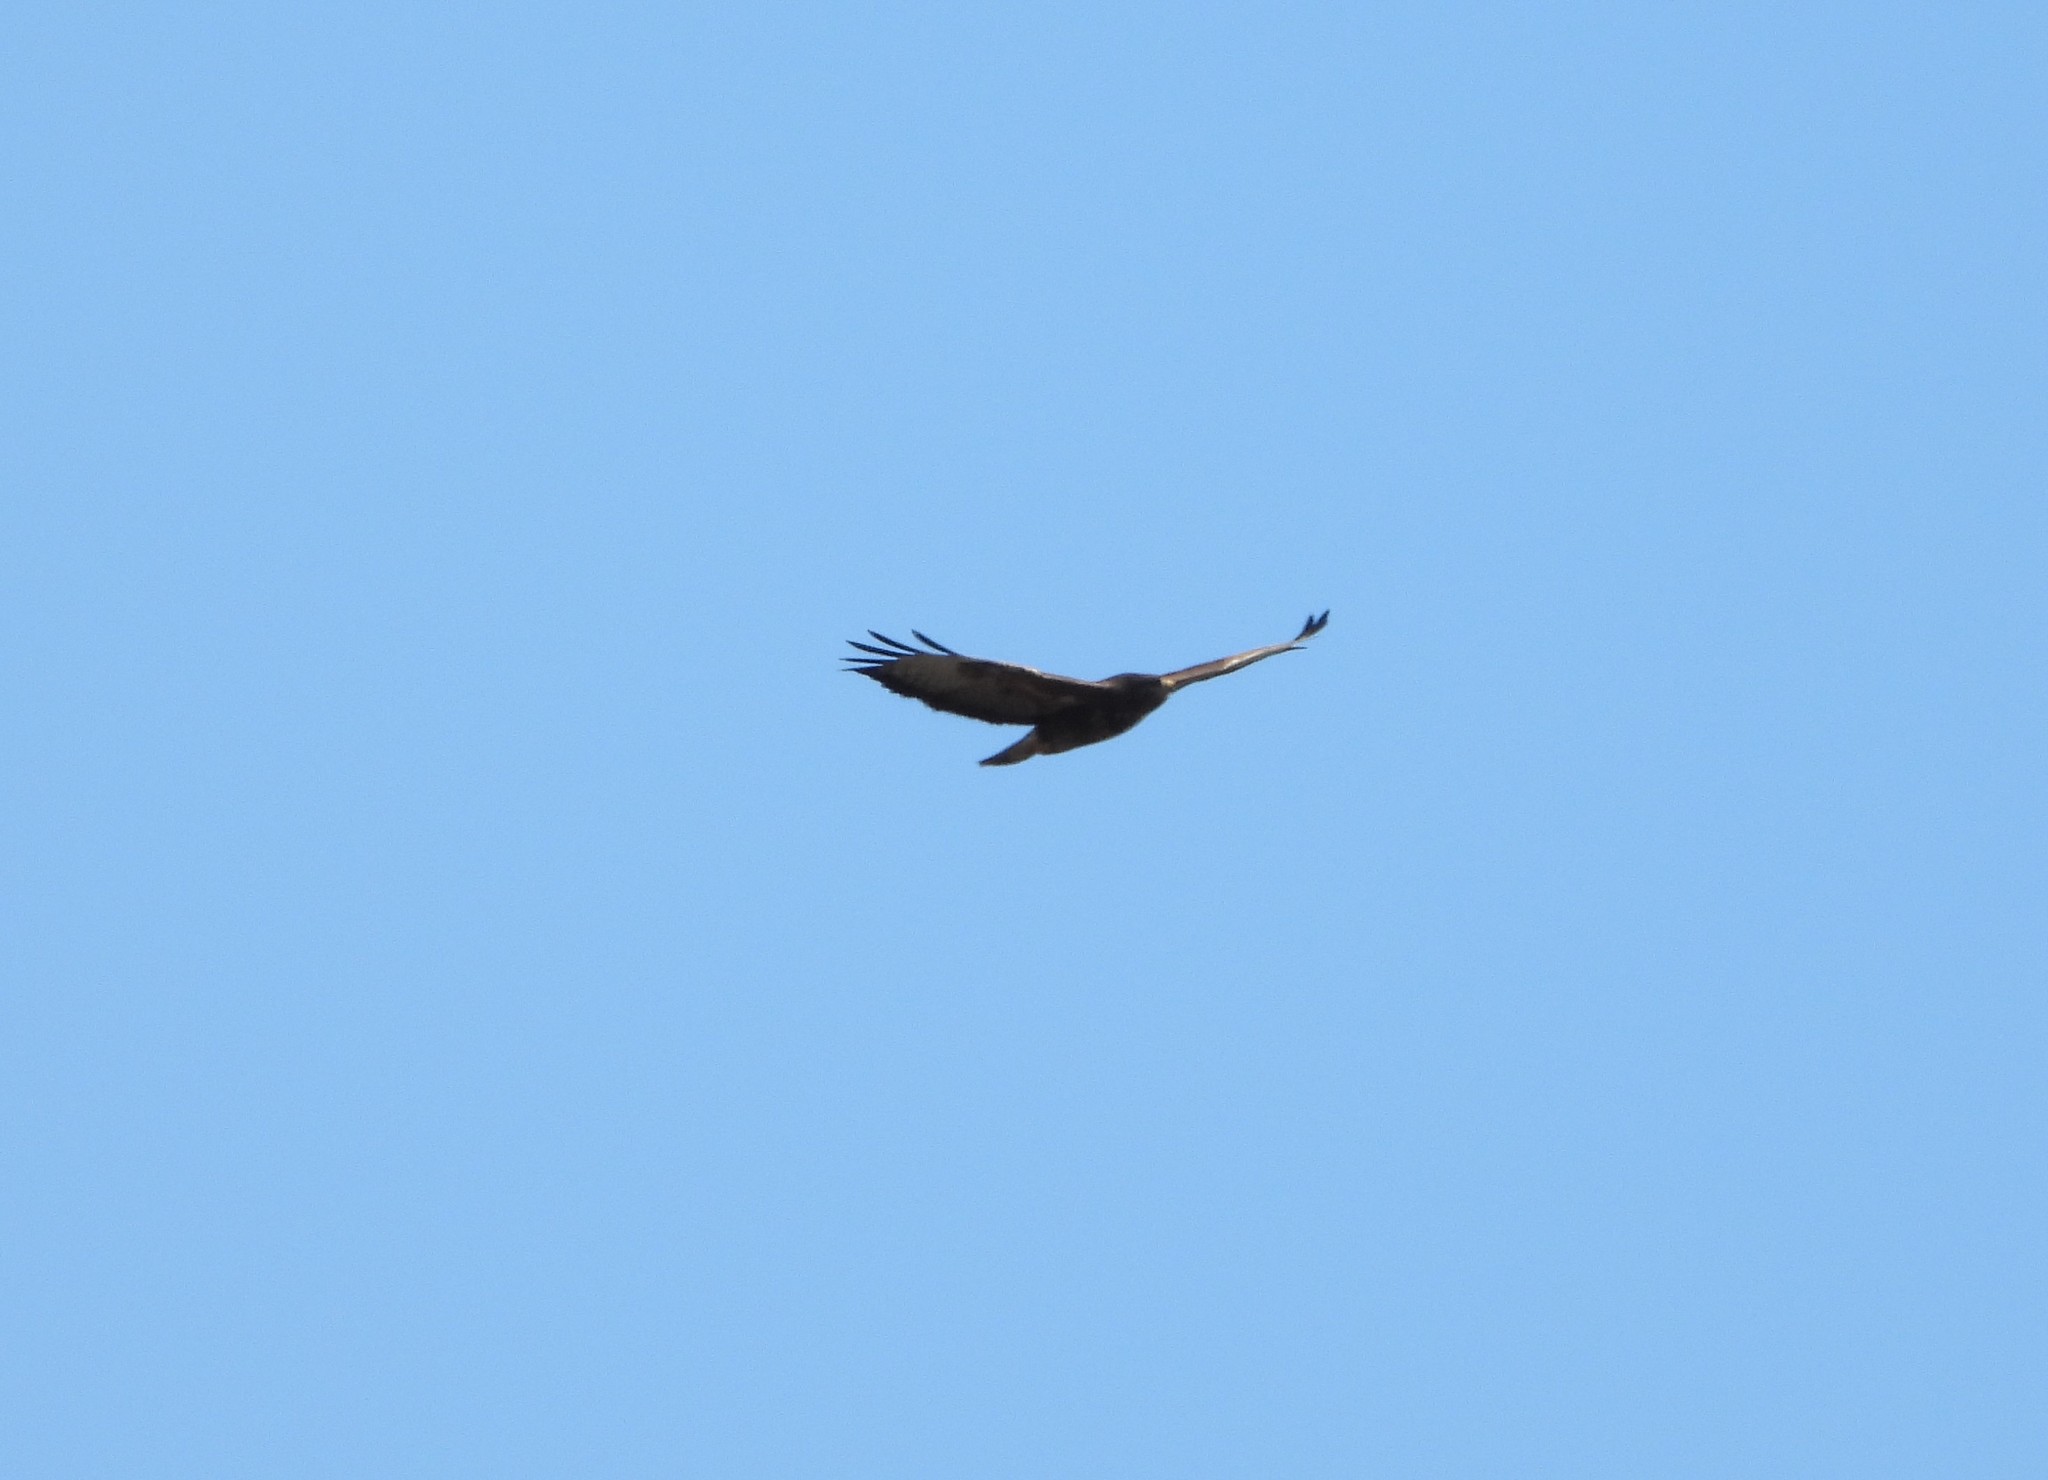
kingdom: Animalia
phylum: Chordata
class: Aves
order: Accipitriformes
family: Accipitridae
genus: Buteo
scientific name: Buteo buteo
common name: Common buzzard
